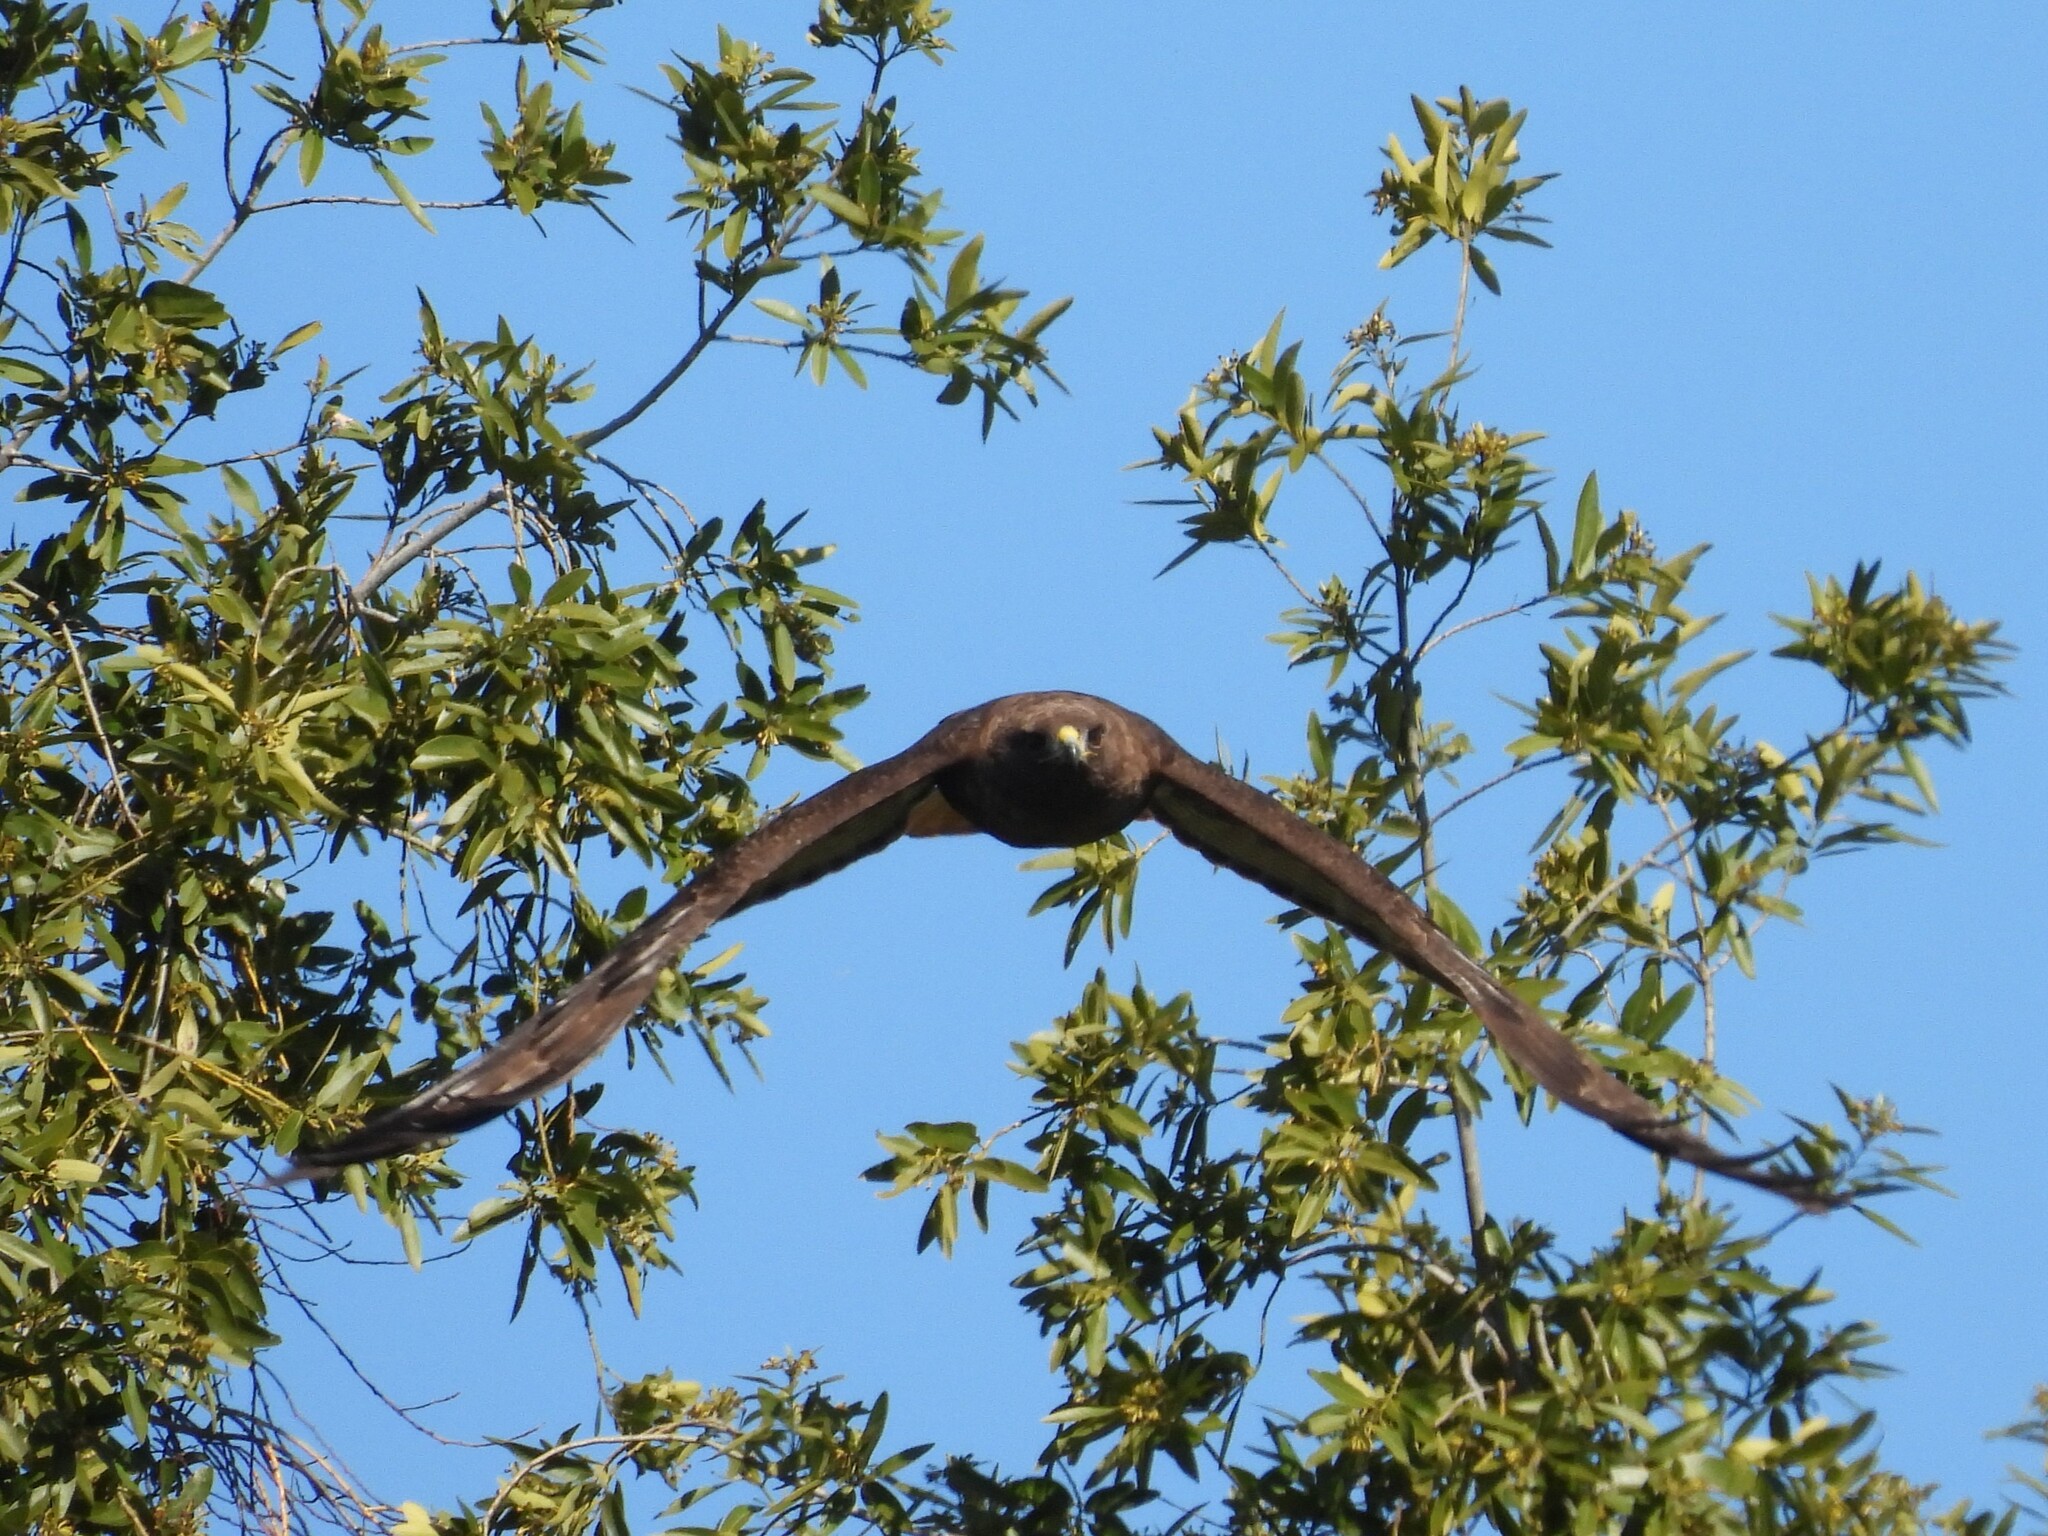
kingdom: Animalia
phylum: Chordata
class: Aves
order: Accipitriformes
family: Accipitridae
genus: Buteo
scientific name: Buteo jamaicensis
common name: Red-tailed hawk
